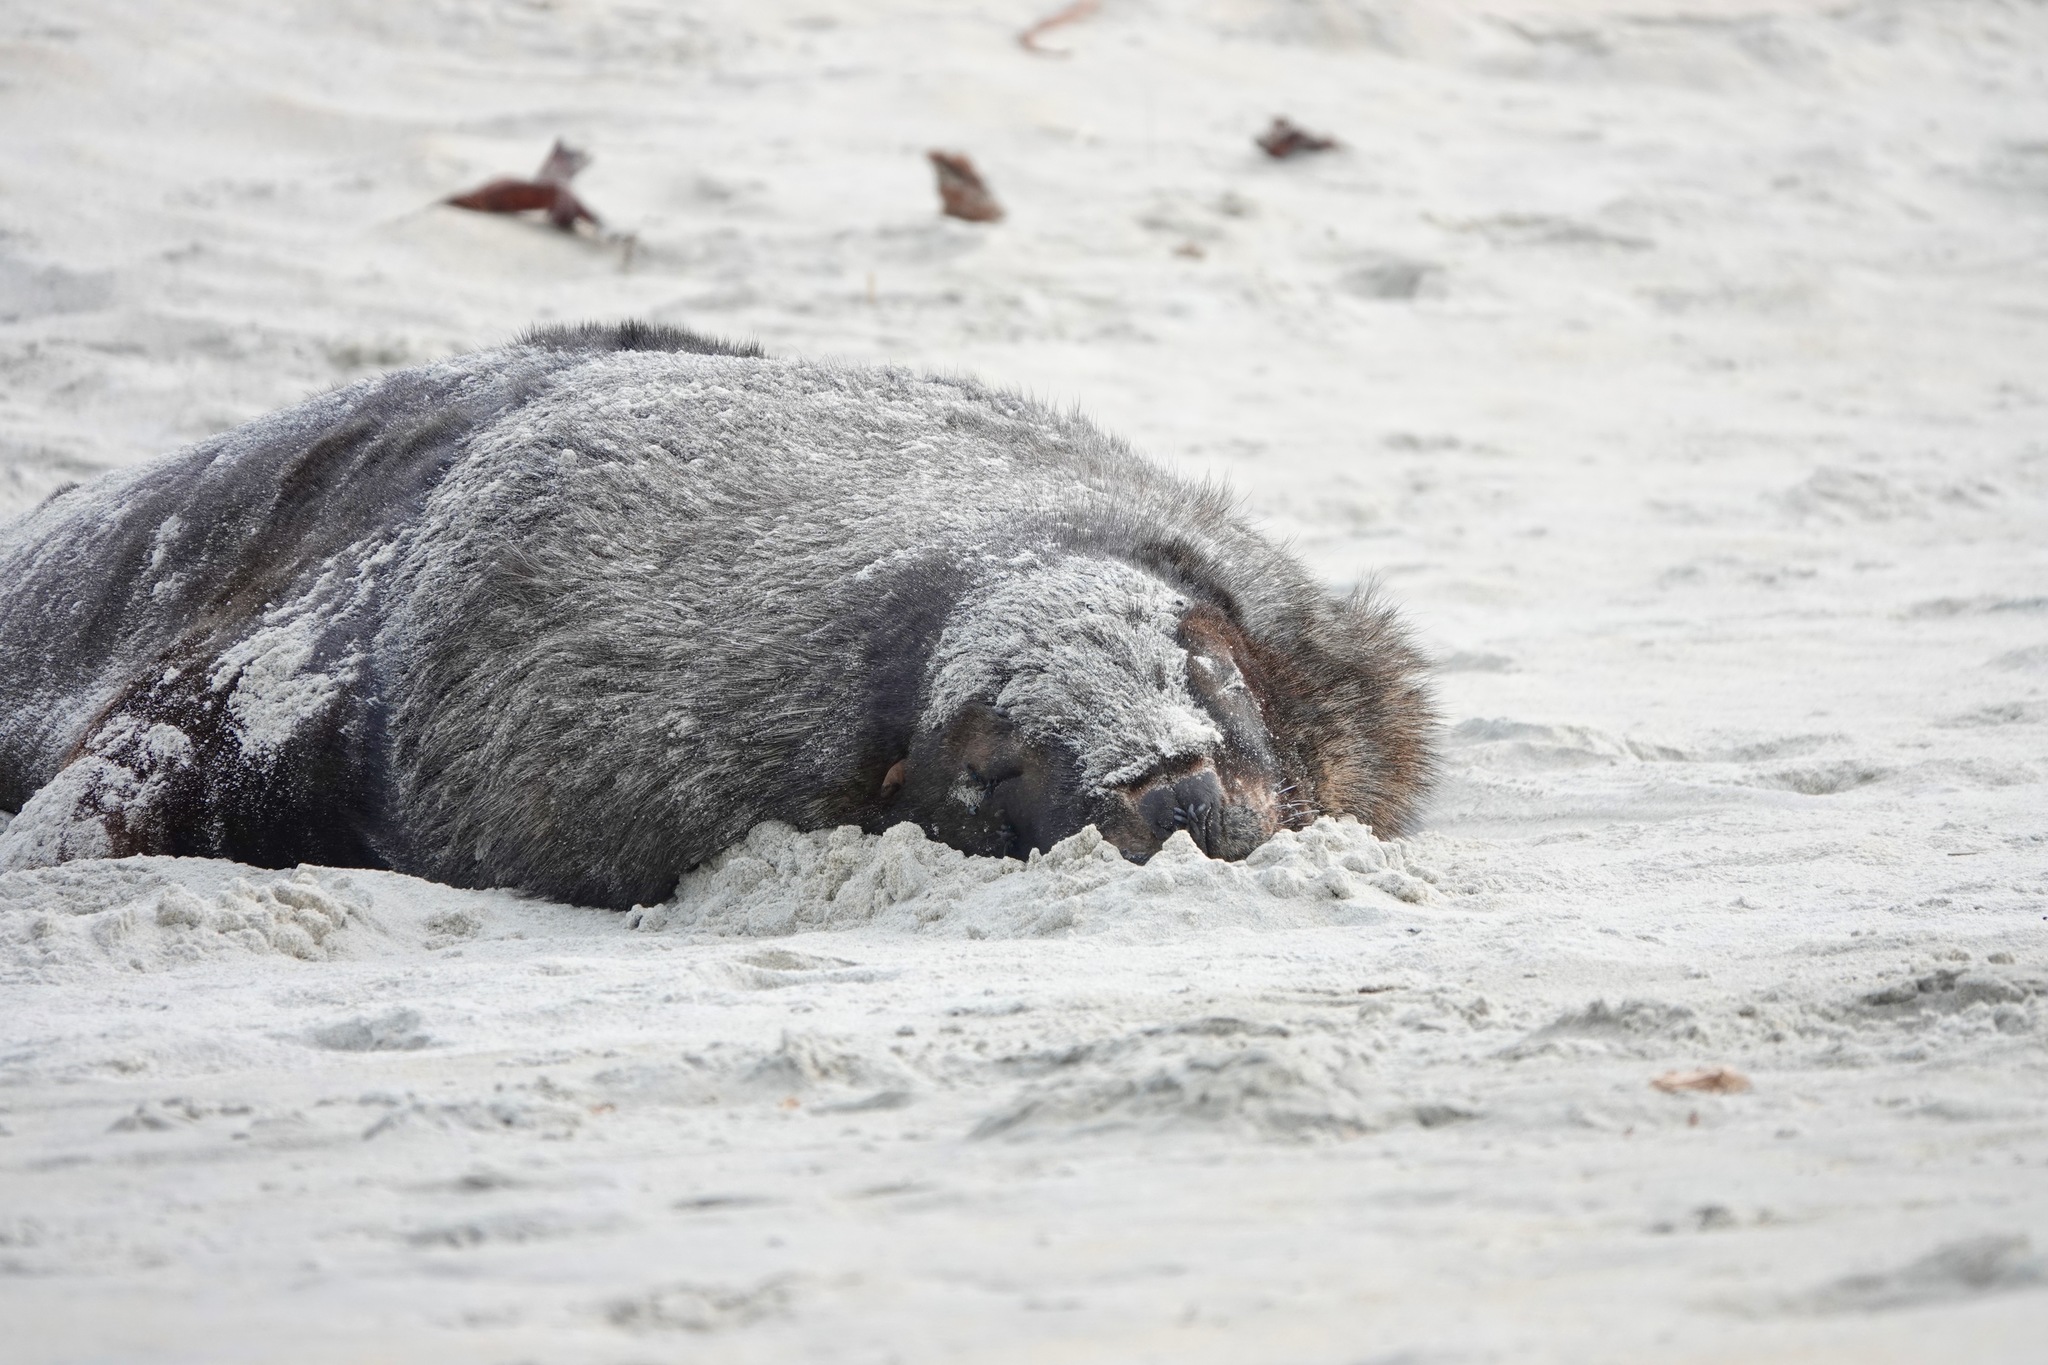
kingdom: Animalia
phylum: Chordata
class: Mammalia
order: Carnivora
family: Otariidae
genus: Phocarctos
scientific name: Phocarctos hookeri
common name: New zealand sea lion
